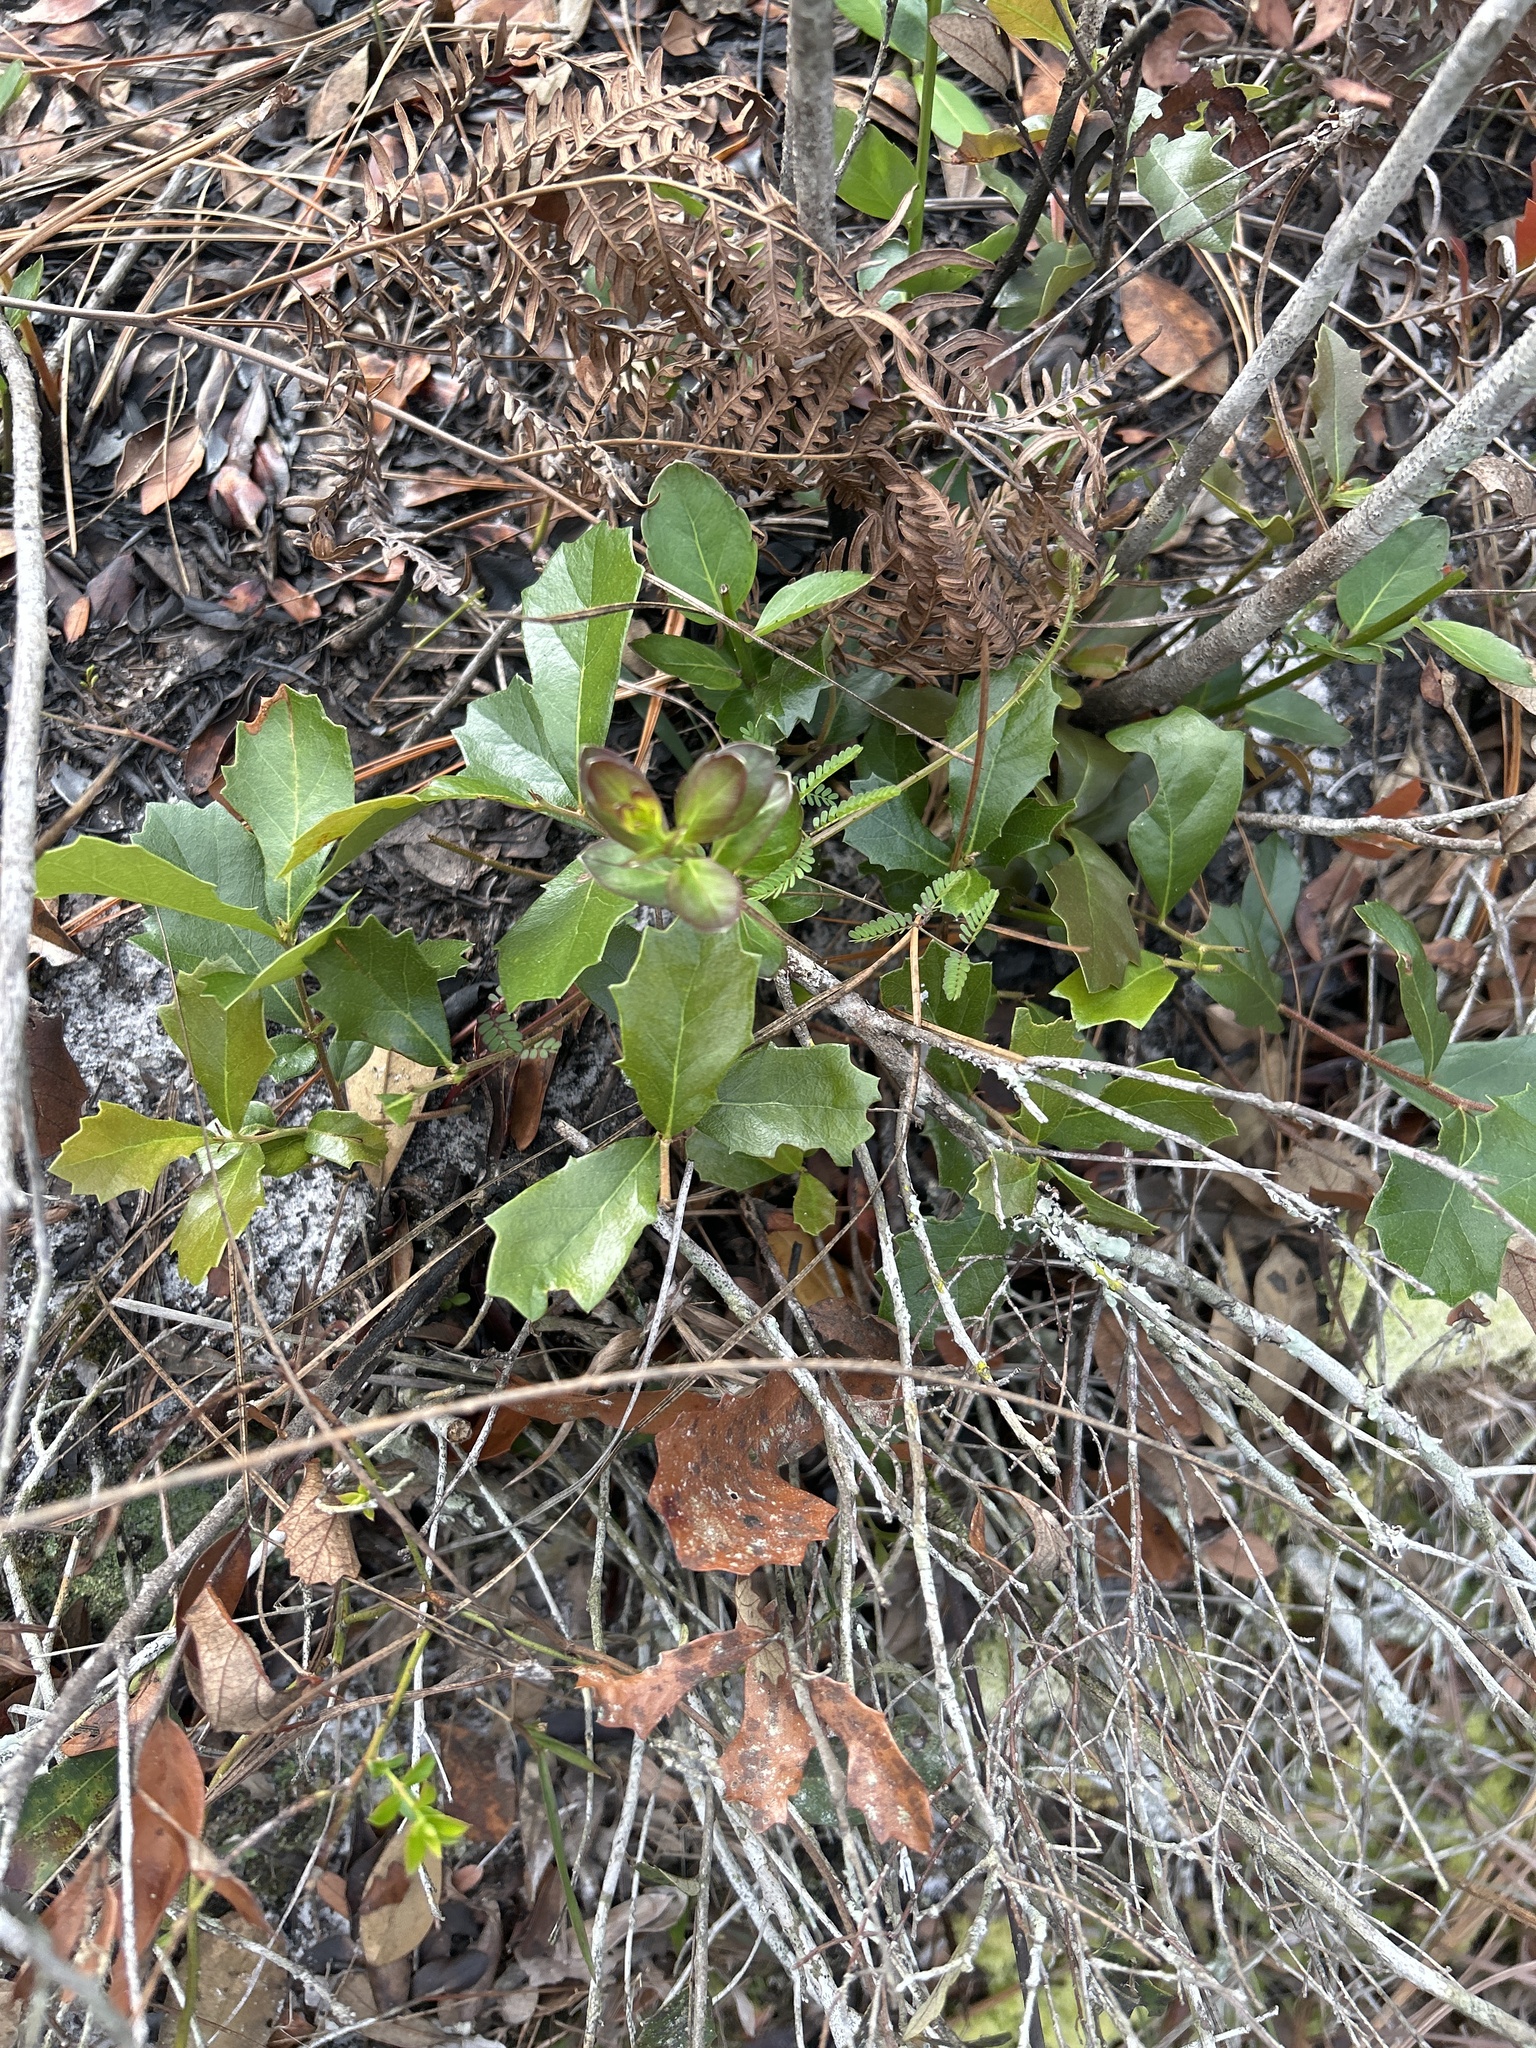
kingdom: Plantae
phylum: Tracheophyta
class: Magnoliopsida
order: Fagales
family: Fagaceae
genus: Quercus
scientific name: Quercus minima
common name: Dwarf live oak
